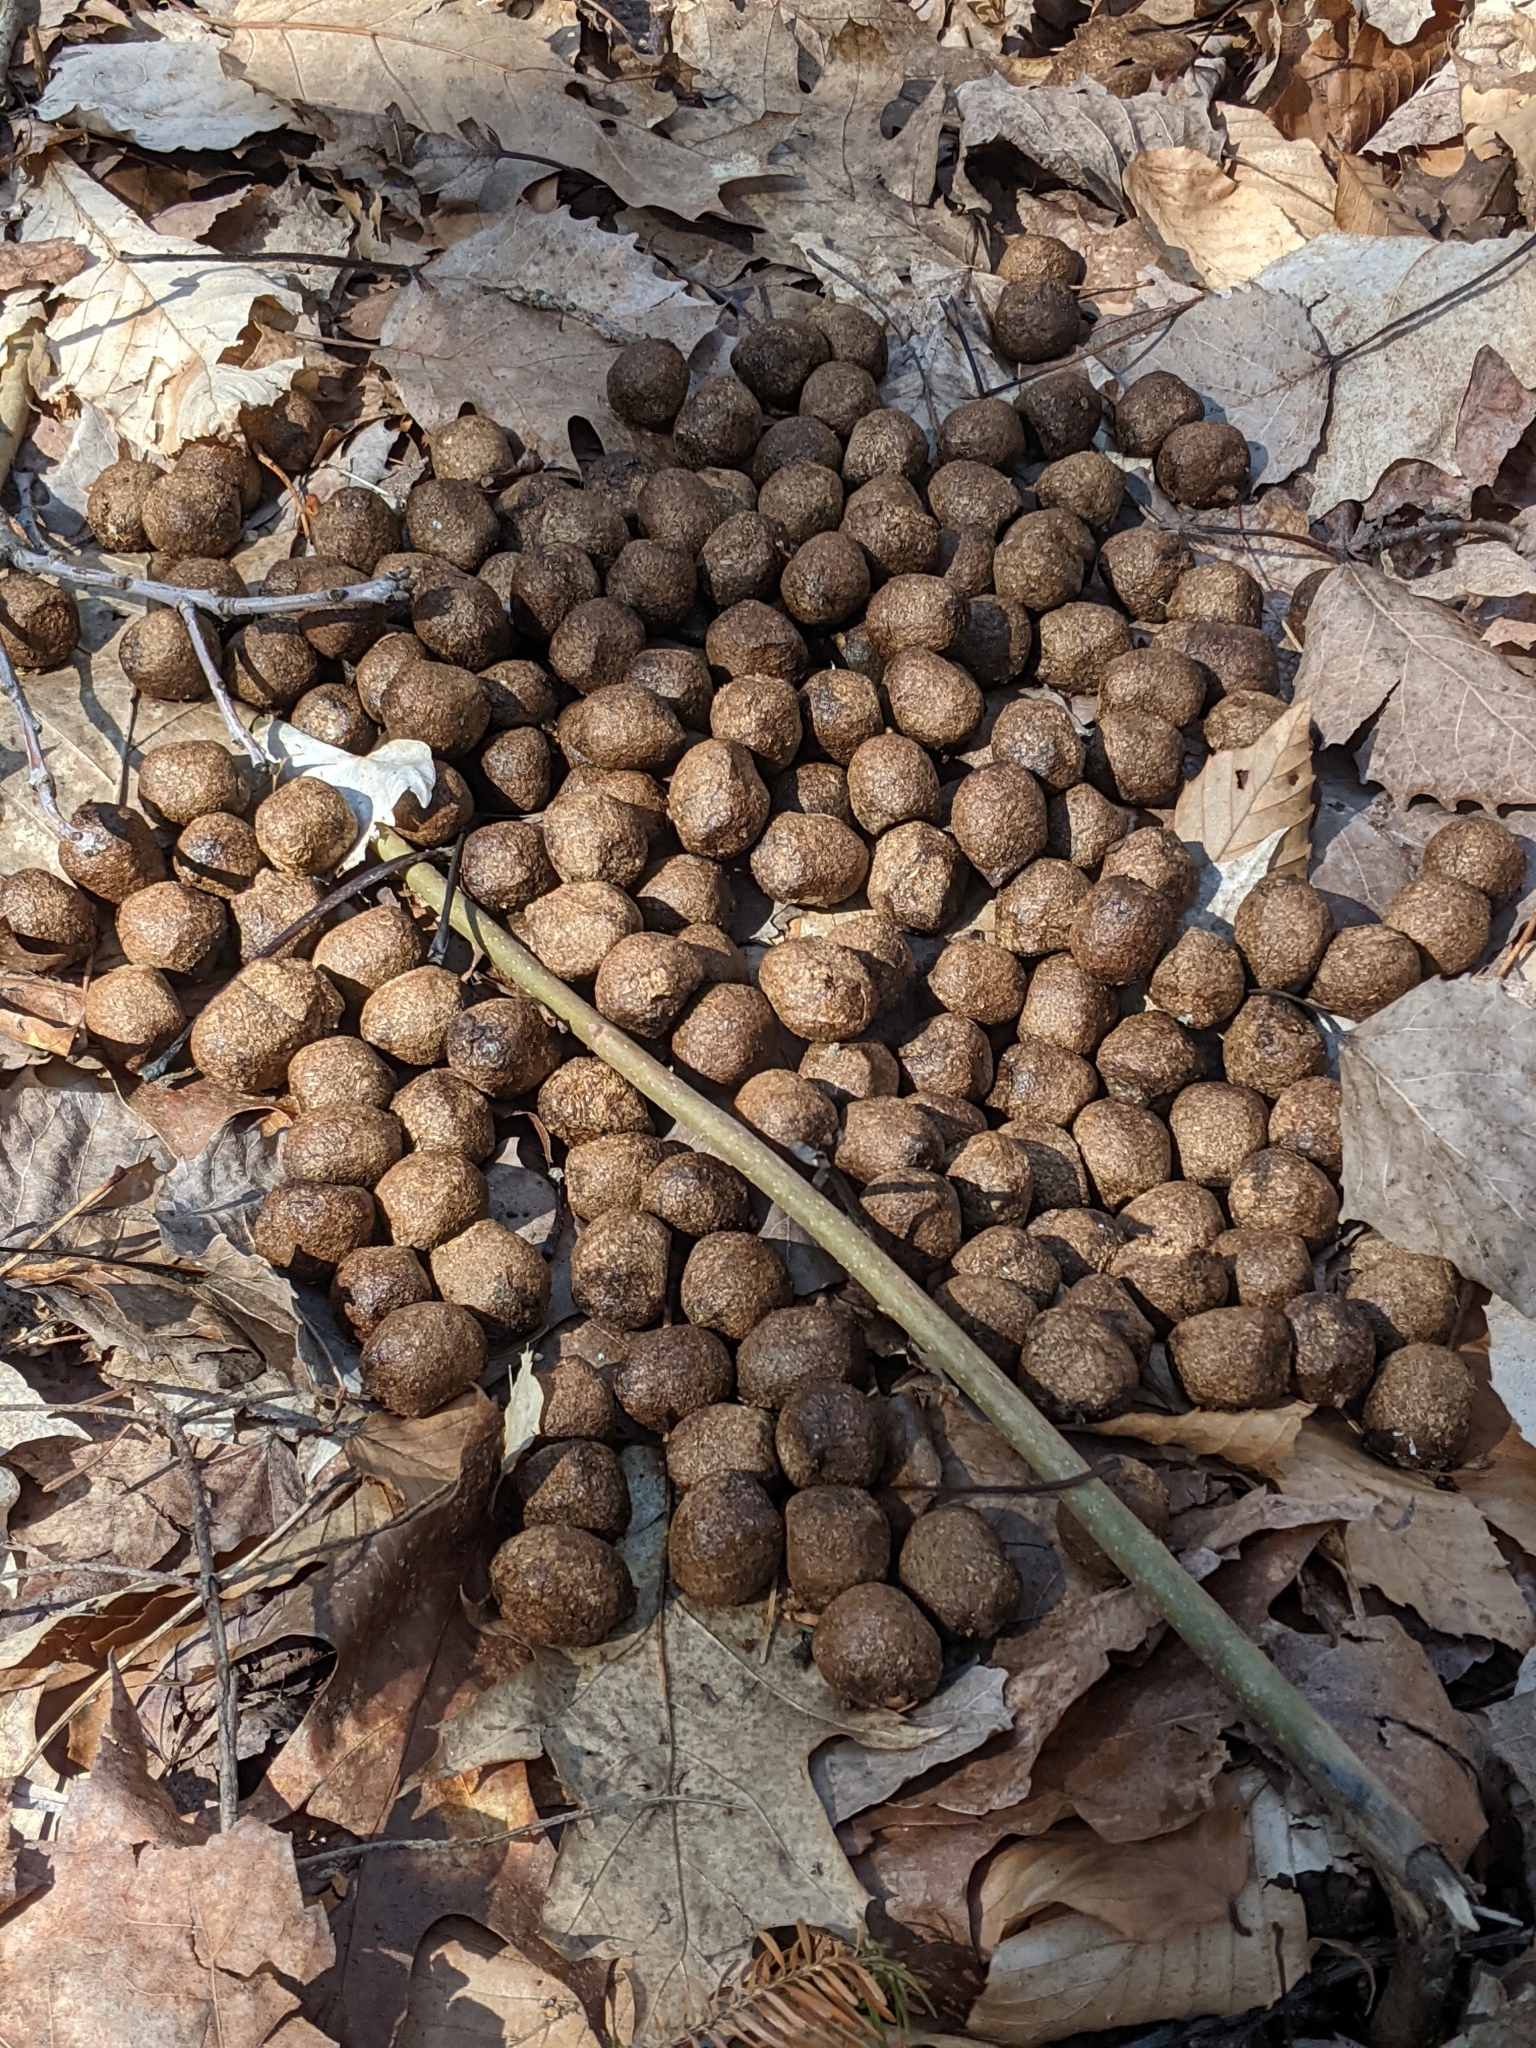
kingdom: Animalia
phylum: Chordata
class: Mammalia
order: Artiodactyla
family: Cervidae
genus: Alces
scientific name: Alces alces
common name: Moose
